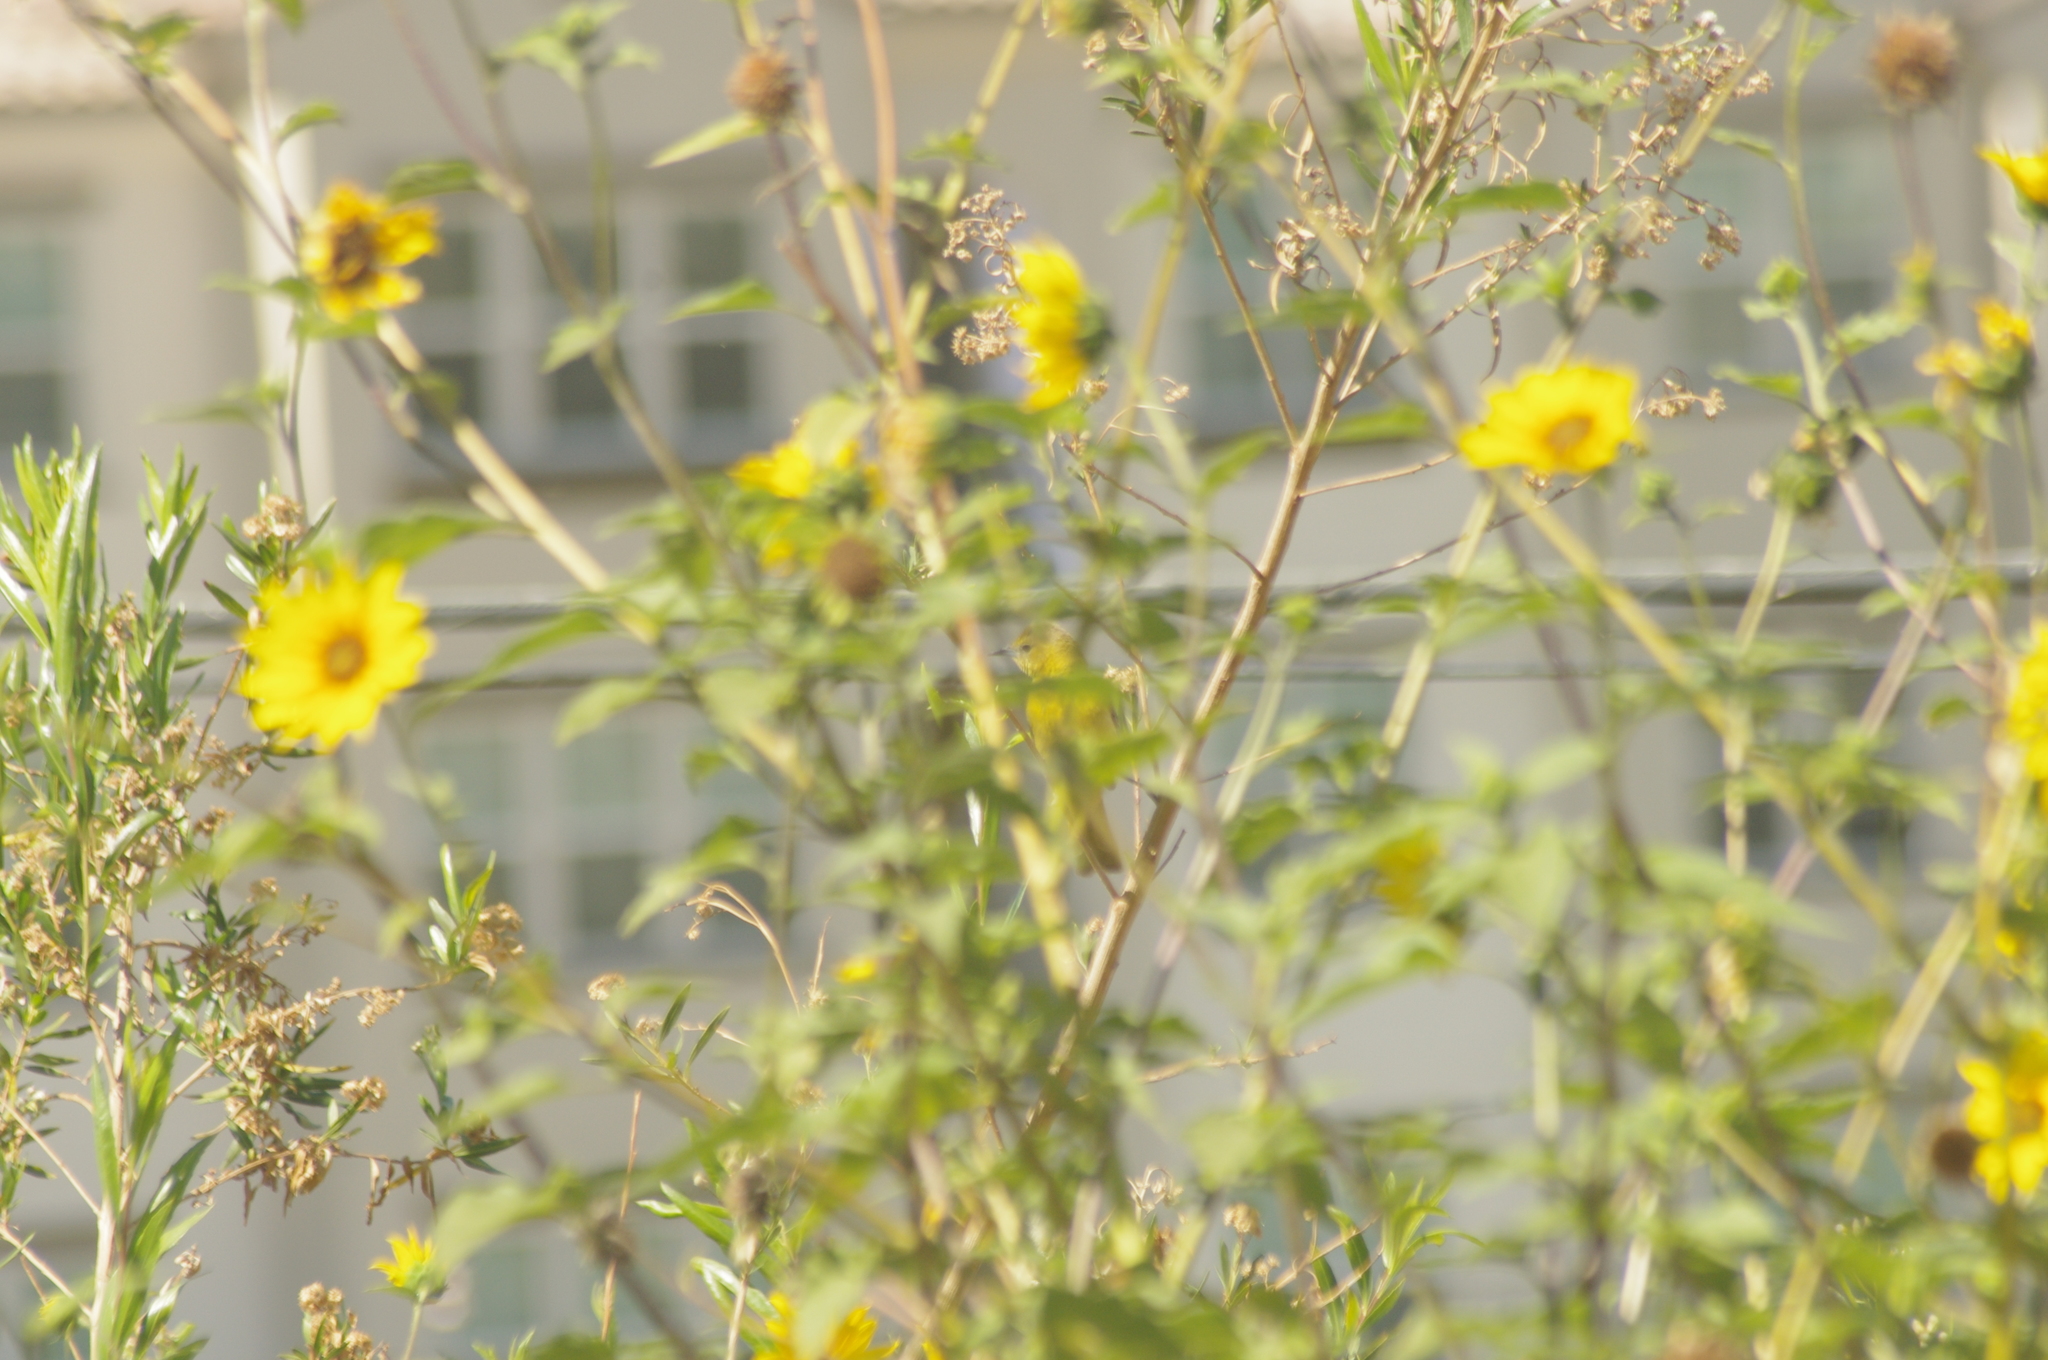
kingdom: Animalia
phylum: Chordata
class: Aves
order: Passeriformes
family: Icteridae
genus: Icterus
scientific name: Icterus cucullatus
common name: Hooded oriole
